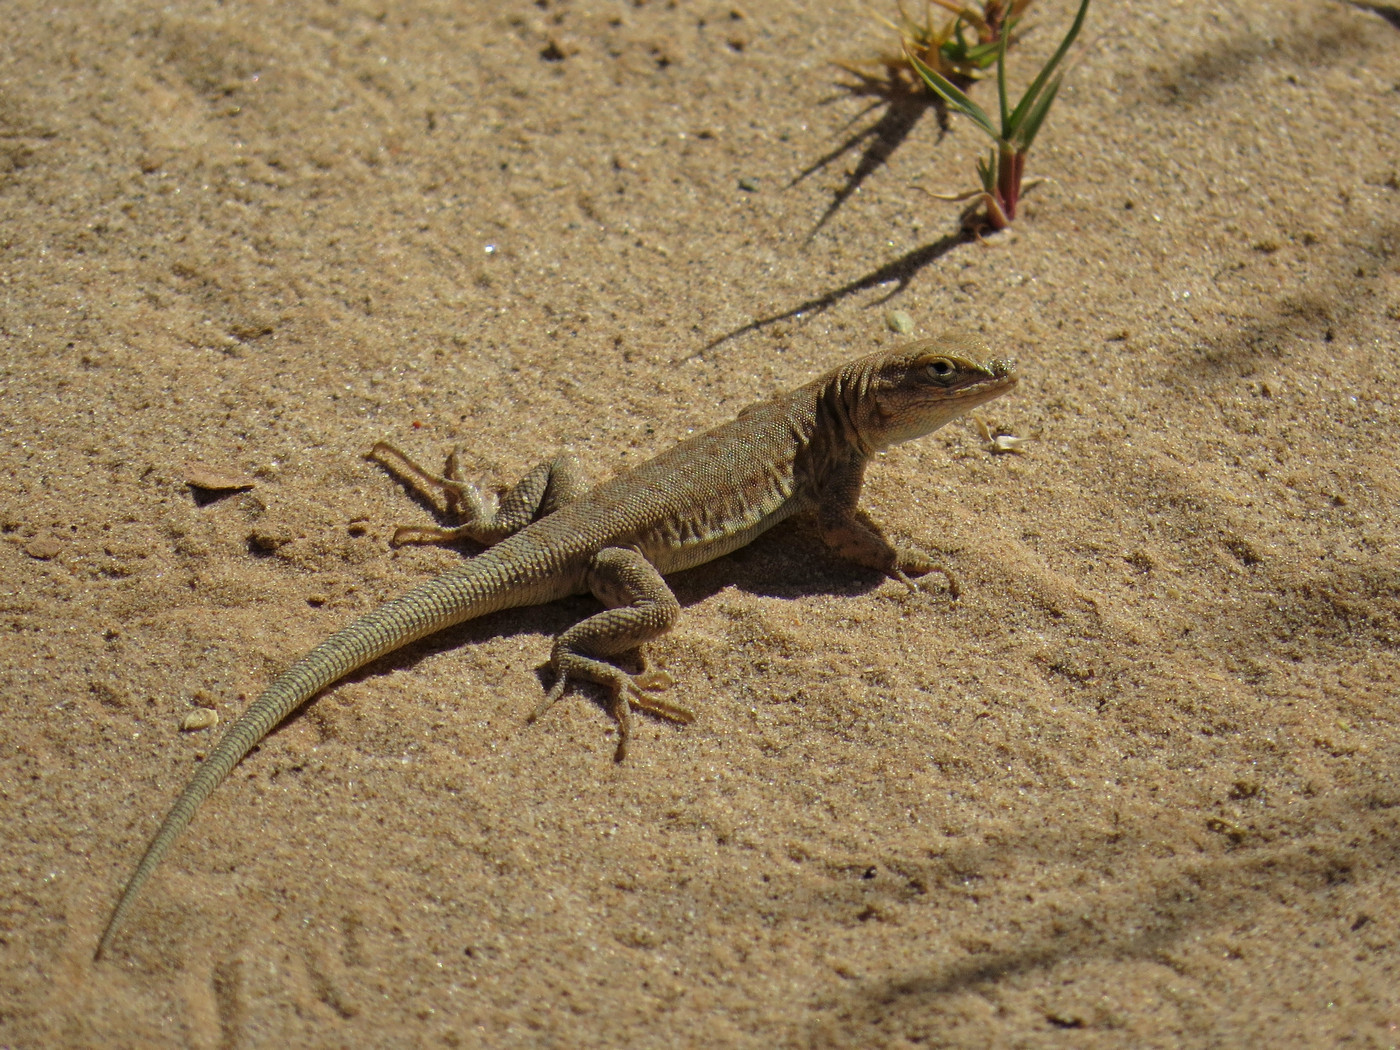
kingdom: Animalia
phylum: Chordata
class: Squamata
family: Phrynosomatidae
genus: Uta
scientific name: Uta stansburiana
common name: Side-blotched lizard
